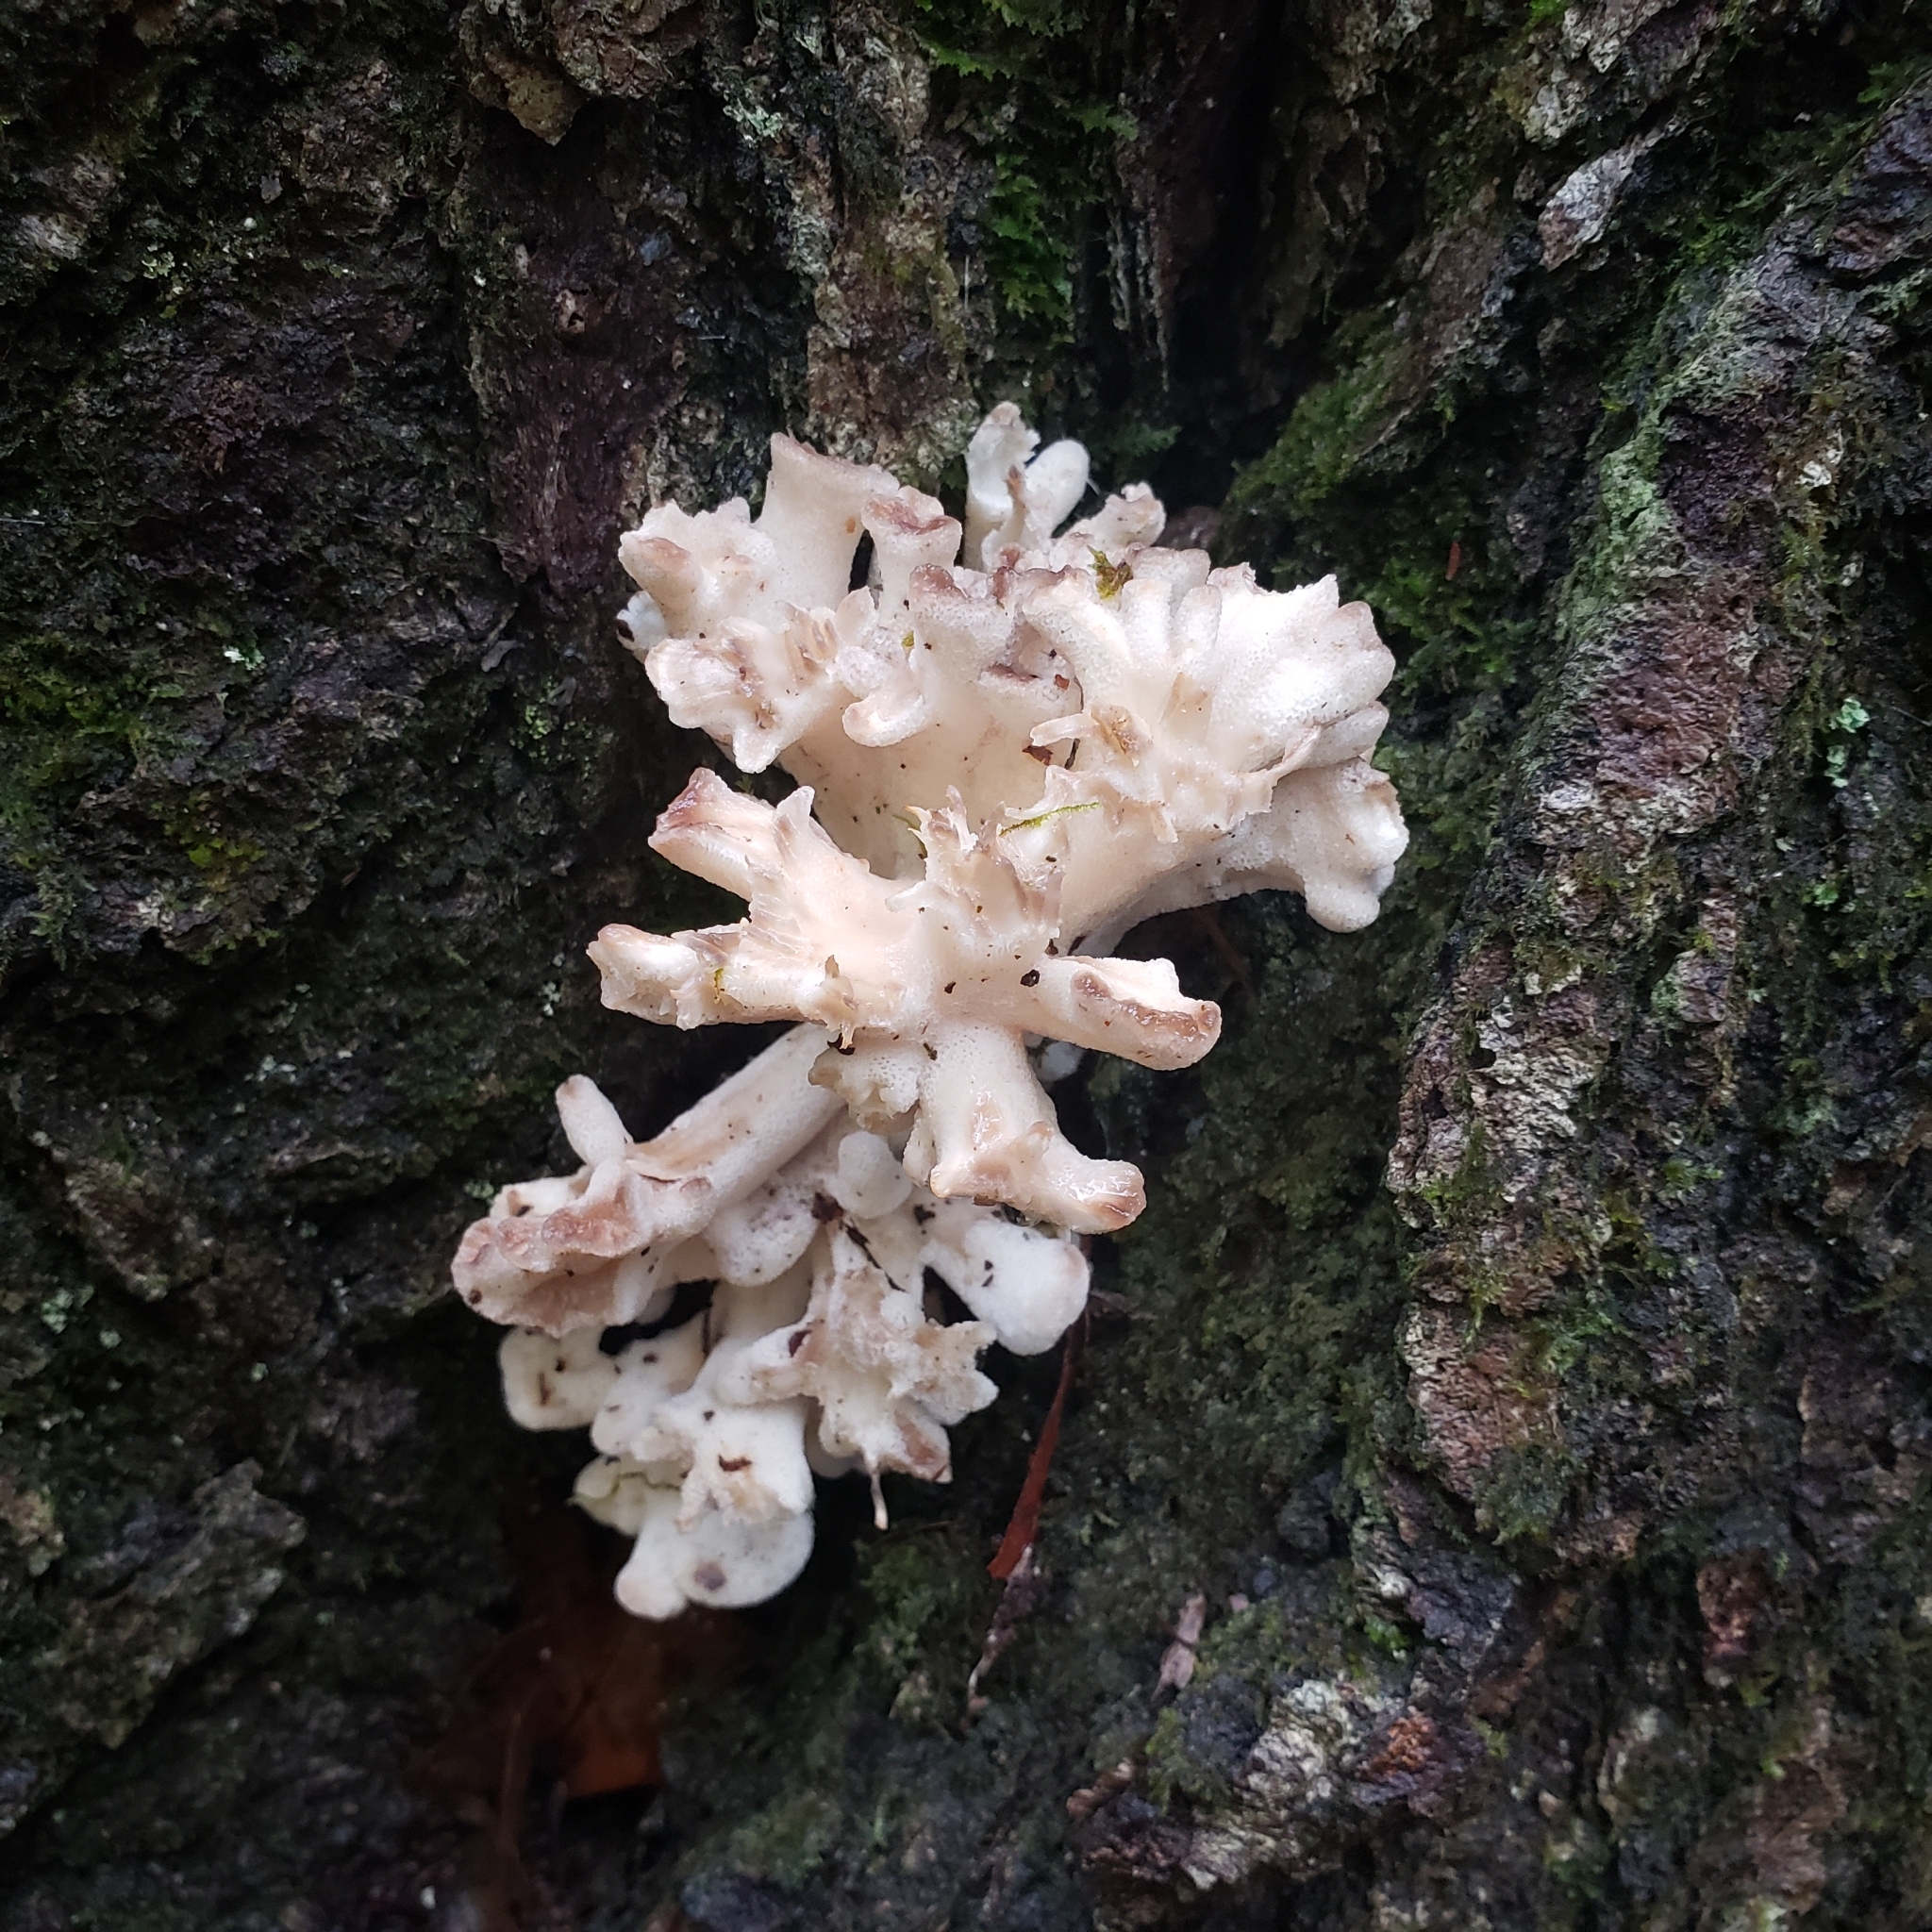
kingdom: Fungi
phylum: Basidiomycota
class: Agaricomycetes
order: Polyporales
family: Grifolaceae
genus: Grifola
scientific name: Grifola frondosa
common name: Hen of the woods
